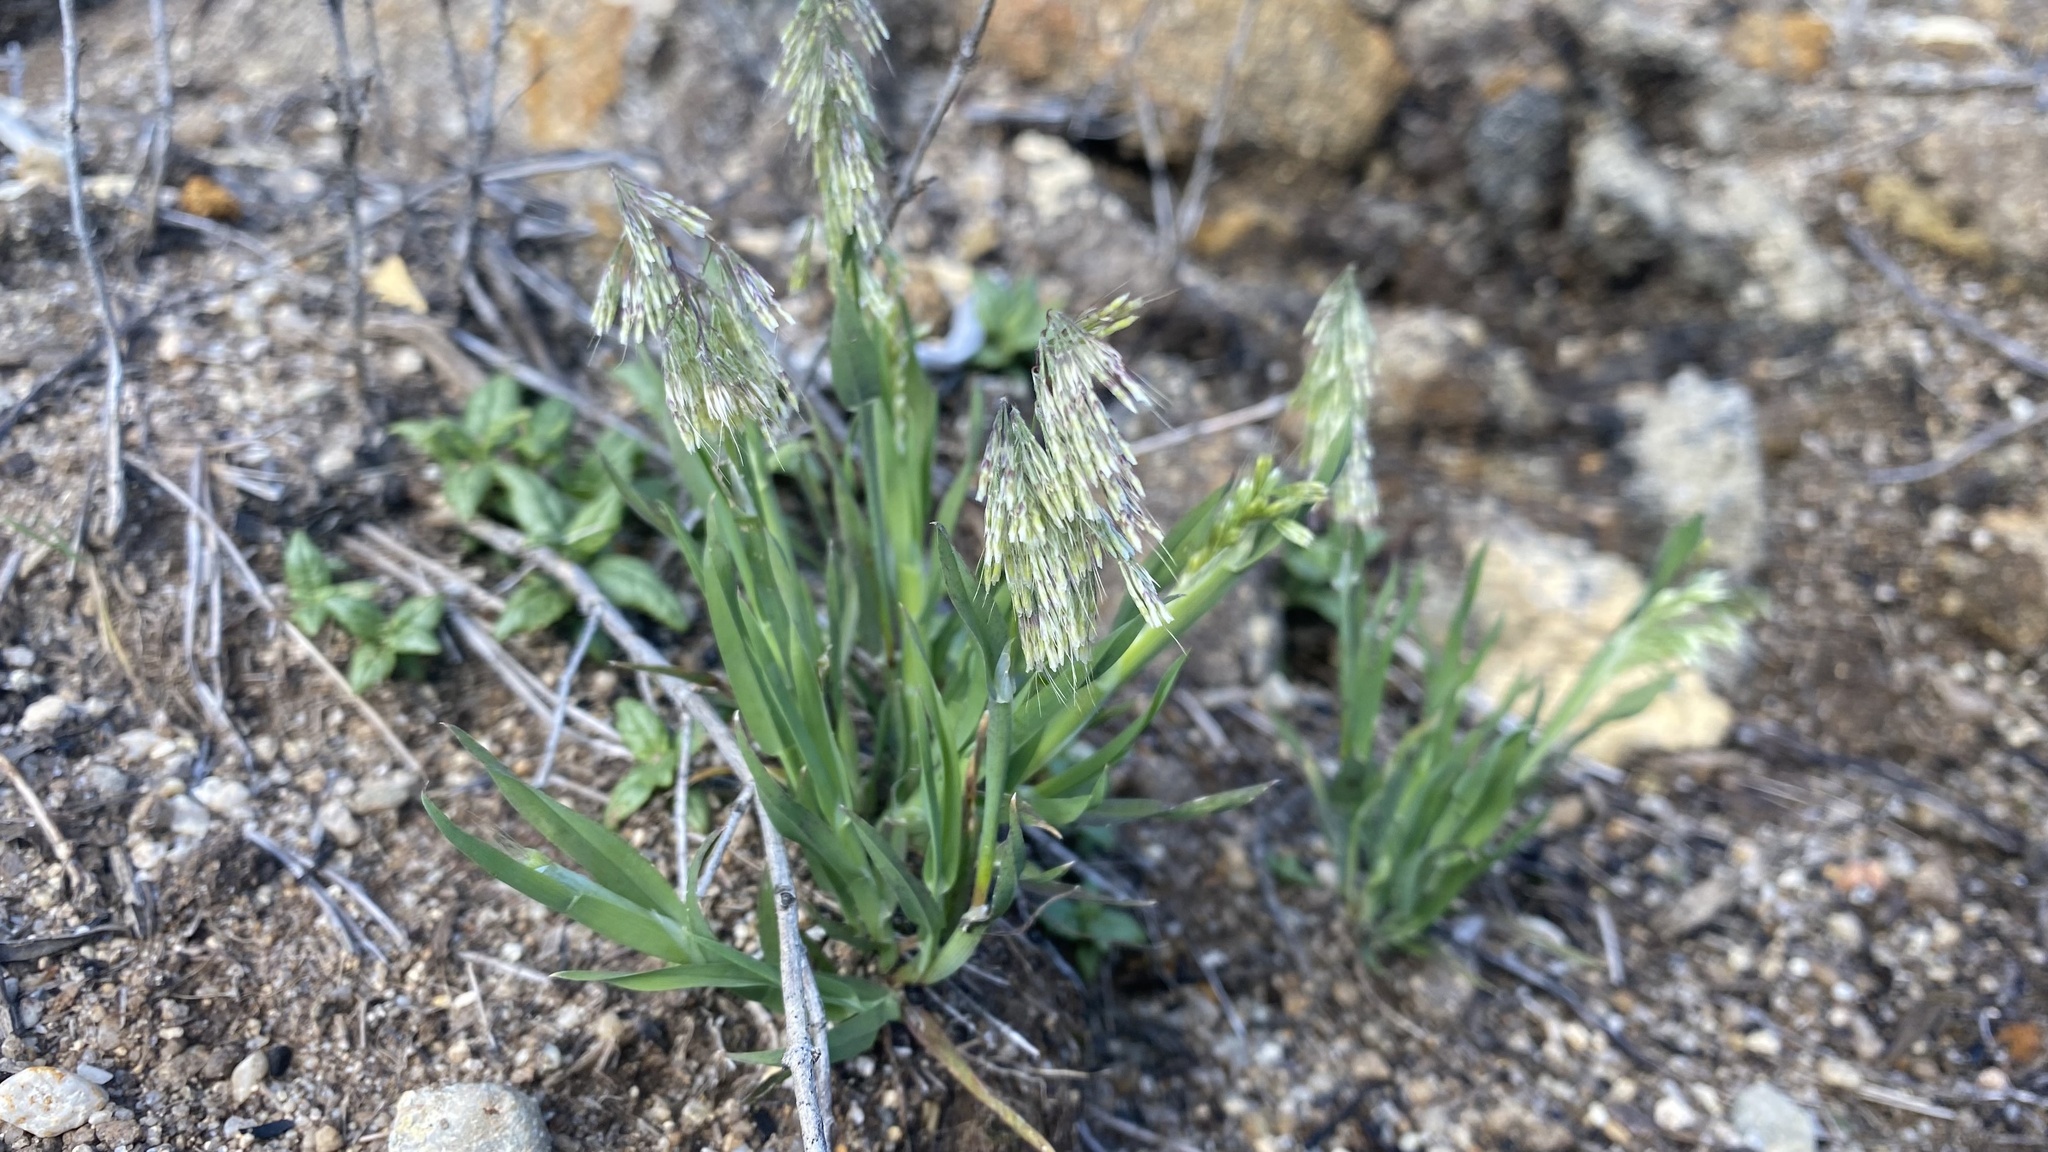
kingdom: Plantae
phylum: Tracheophyta
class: Liliopsida
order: Poales
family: Poaceae
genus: Lamarckia
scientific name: Lamarckia aurea
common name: Golden dog's-tail
